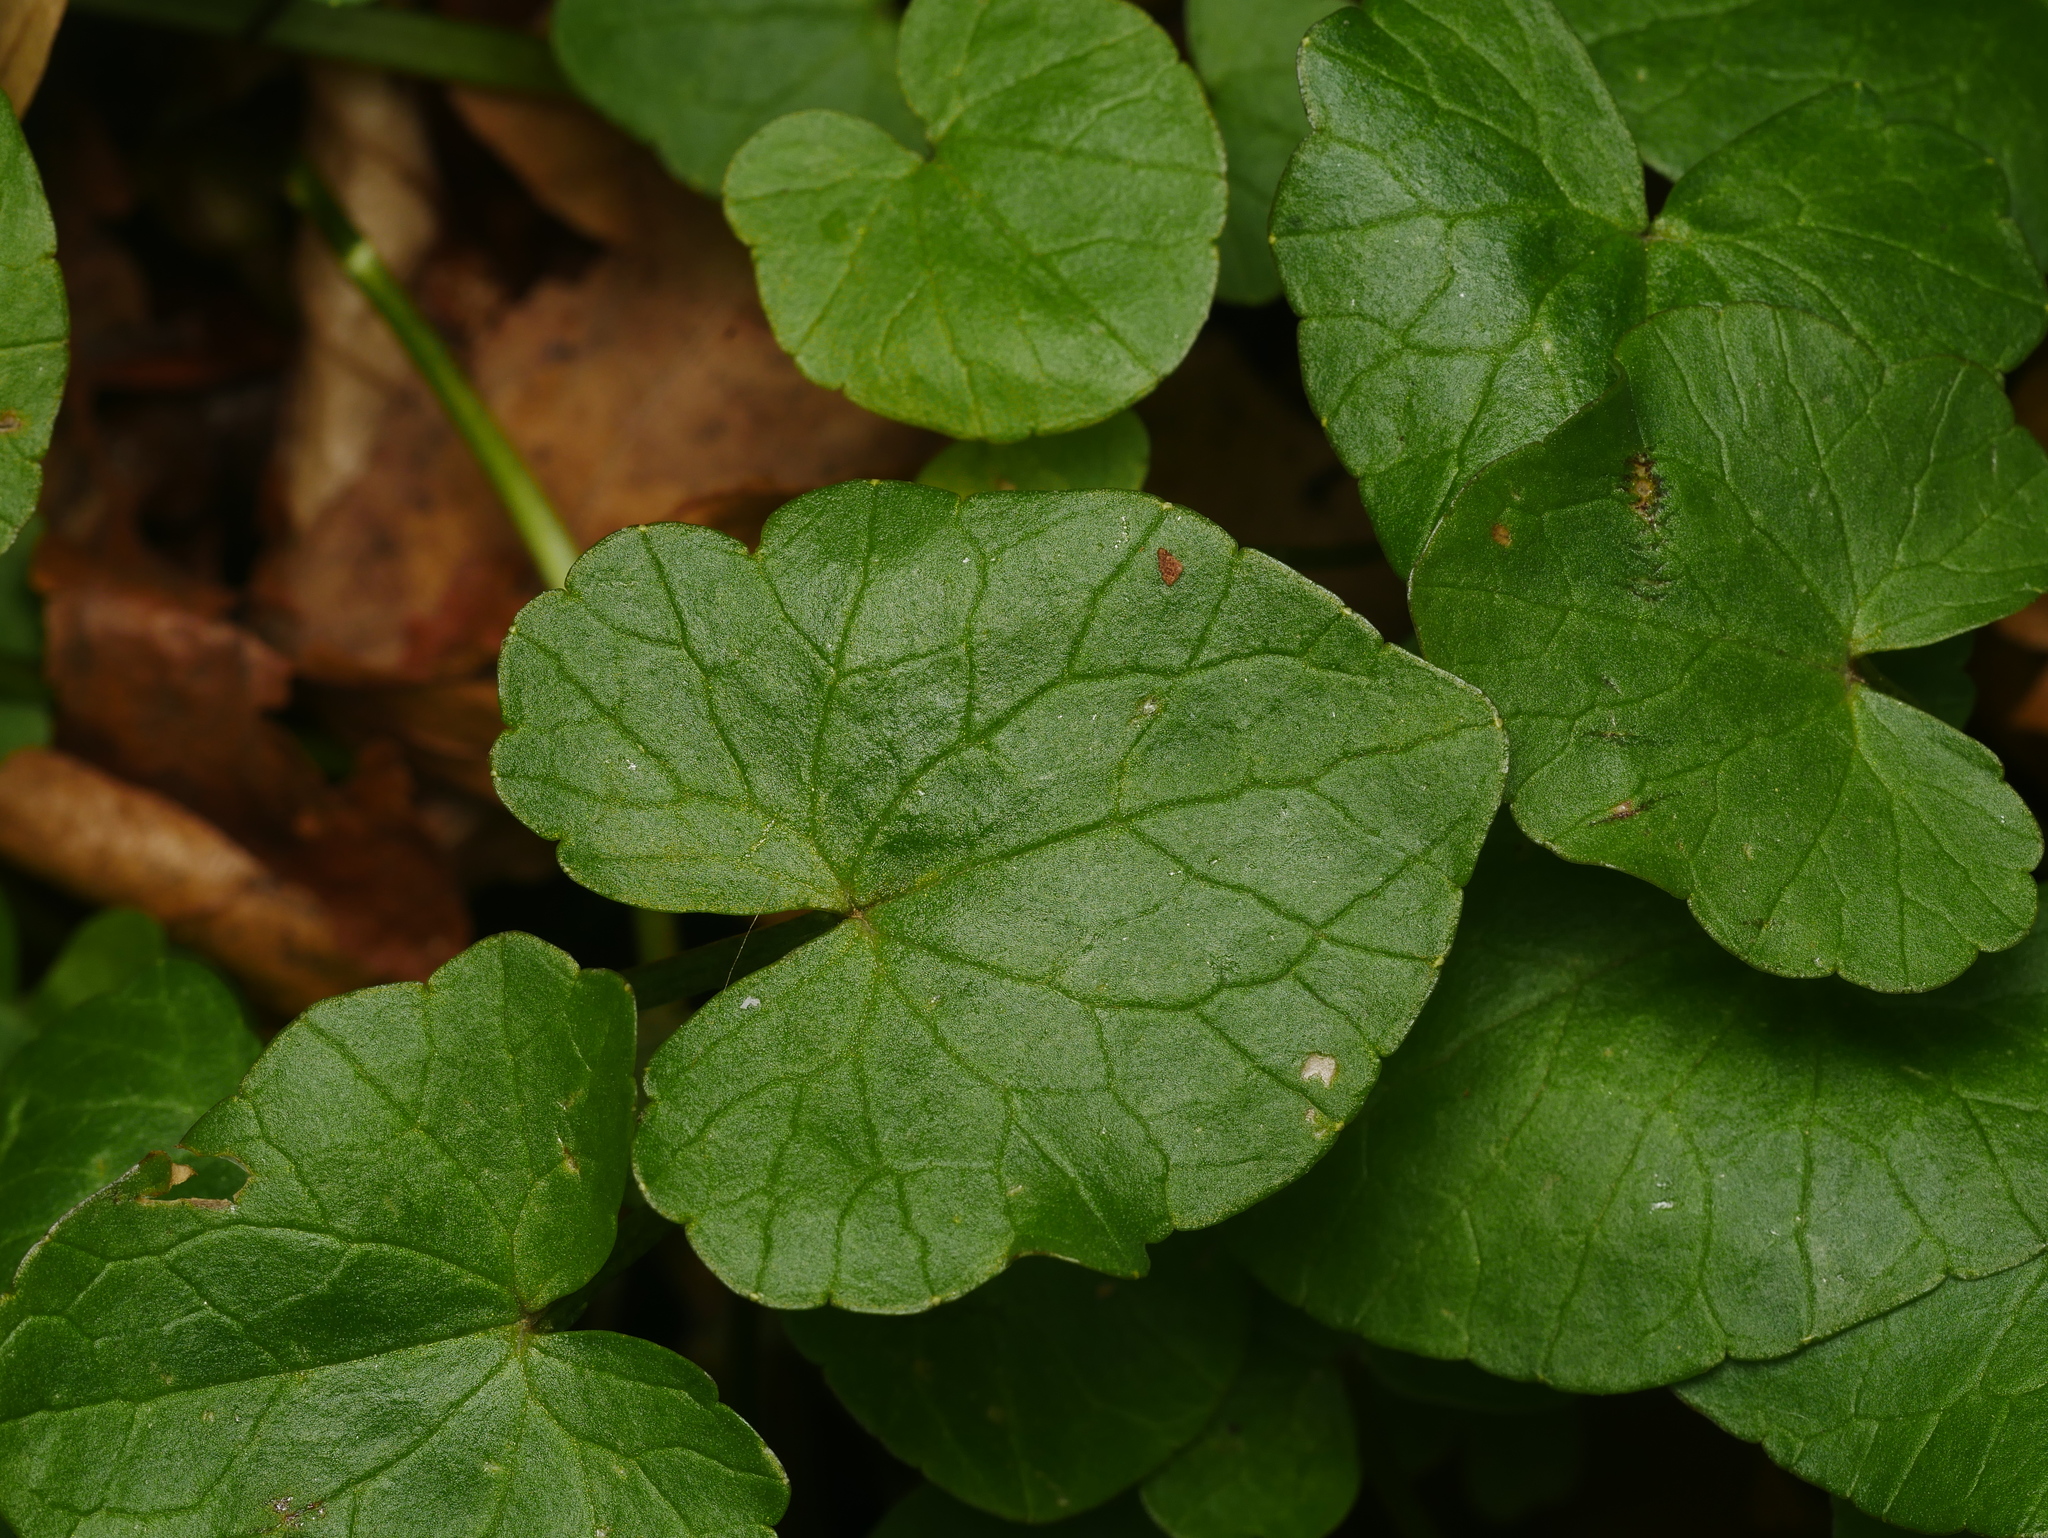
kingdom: Plantae
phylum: Tracheophyta
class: Magnoliopsida
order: Ranunculales
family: Ranunculaceae
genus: Ficaria
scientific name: Ficaria verna
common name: Lesser celandine
